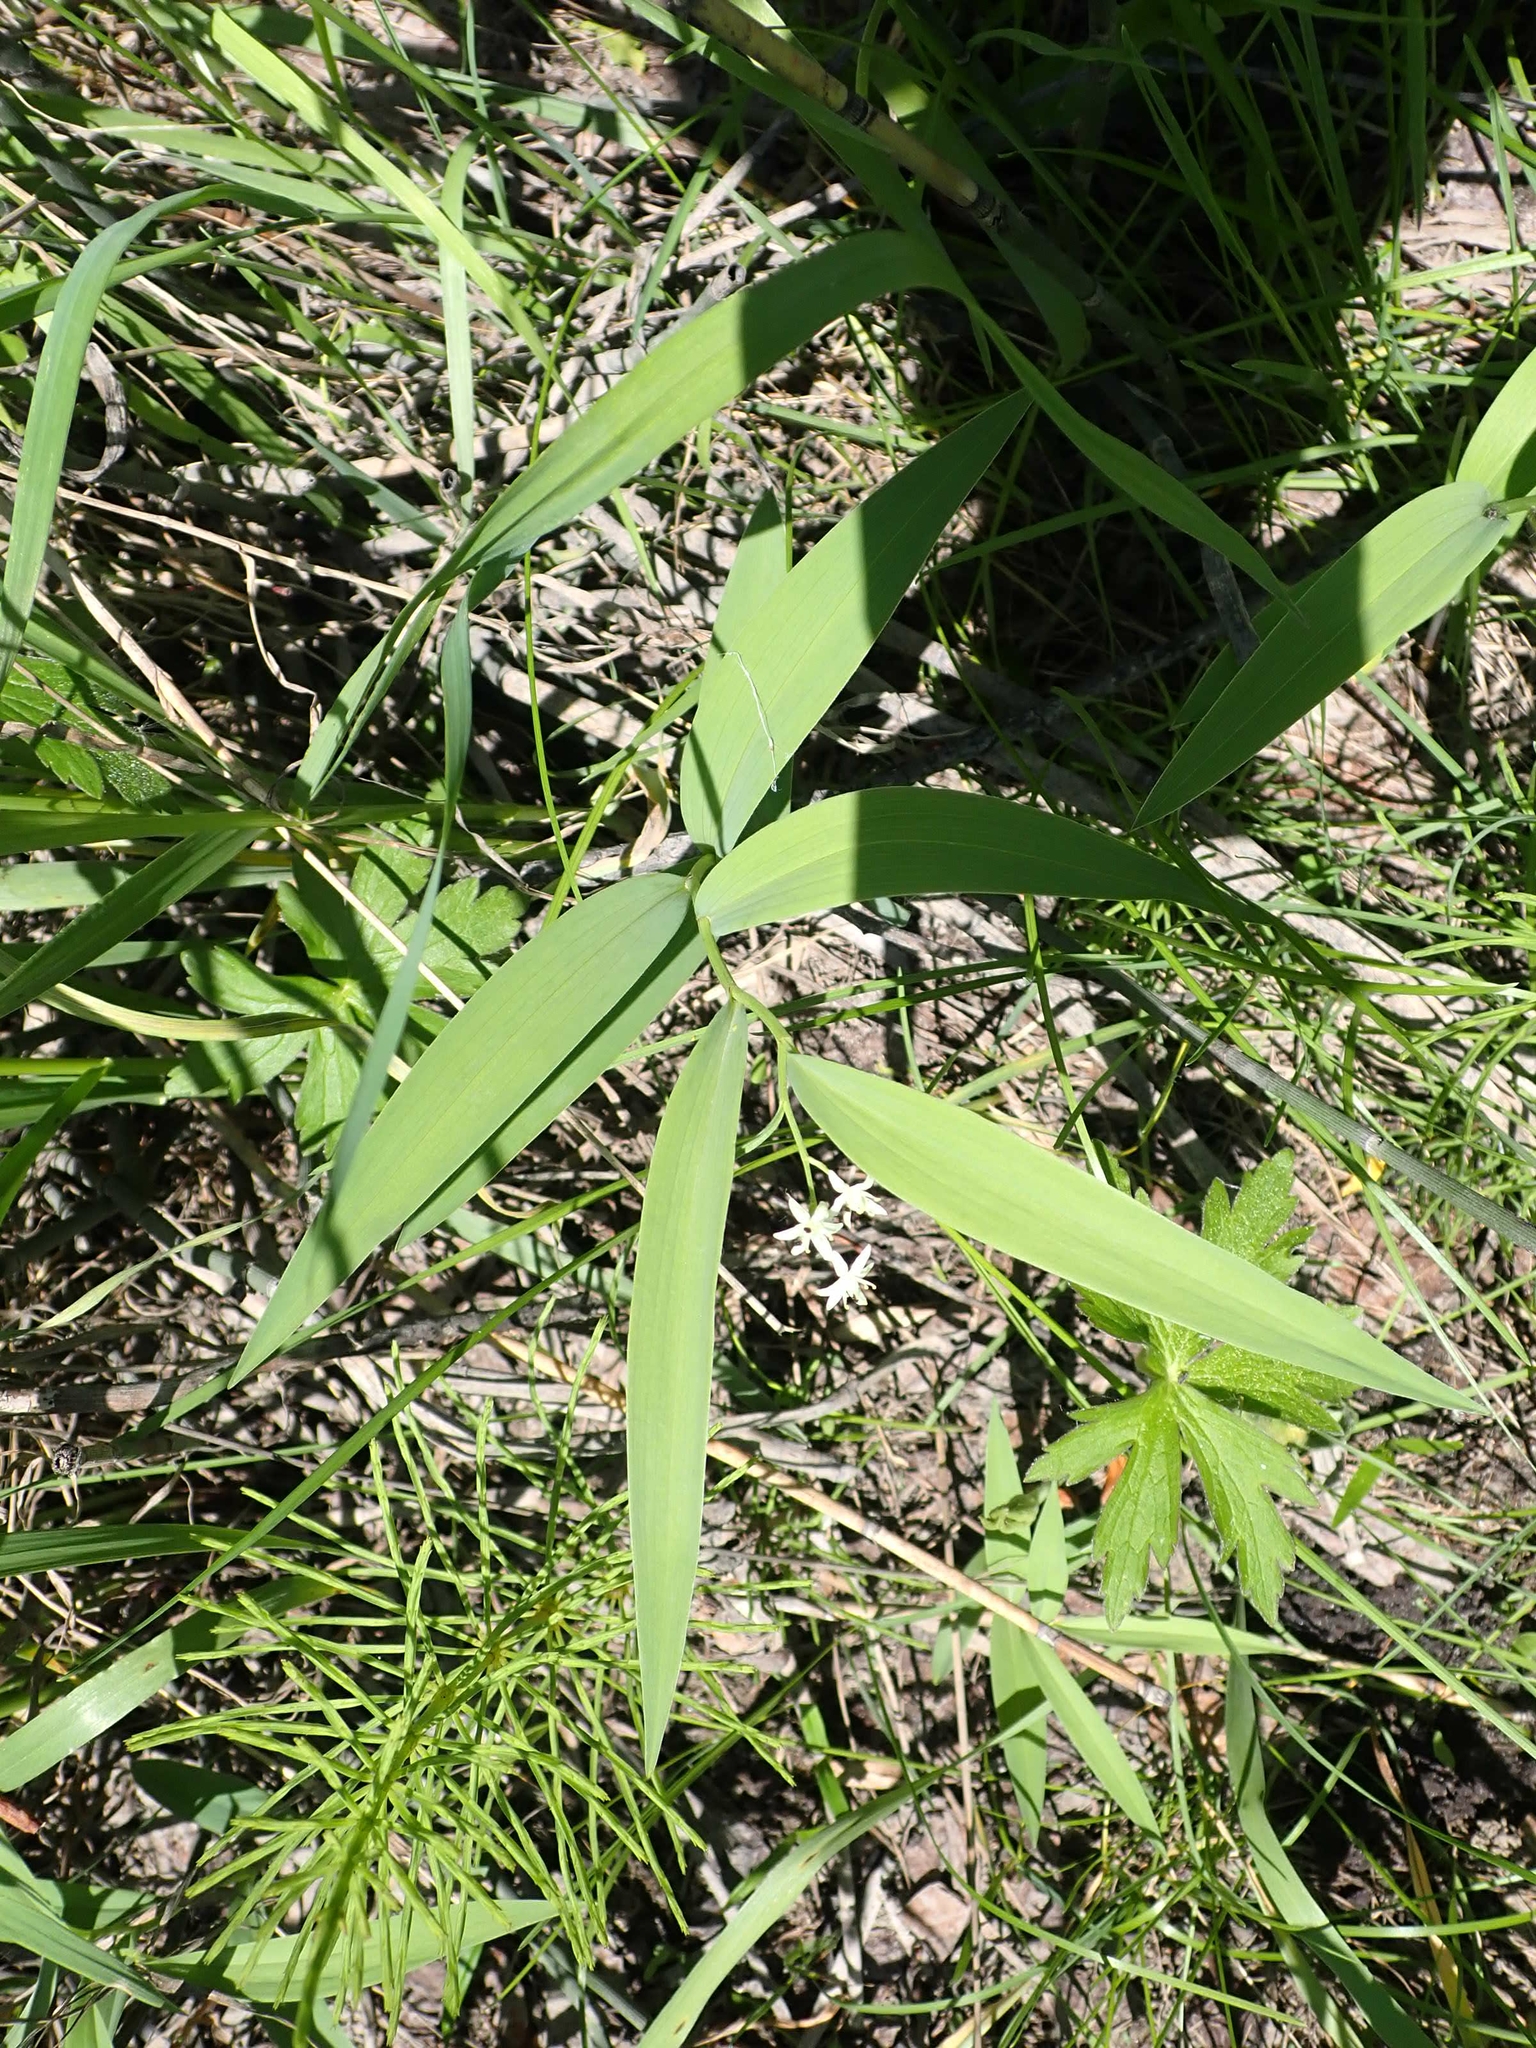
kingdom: Plantae
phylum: Tracheophyta
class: Liliopsida
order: Asparagales
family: Asparagaceae
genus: Maianthemum
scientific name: Maianthemum stellatum
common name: Little false solomon's seal
